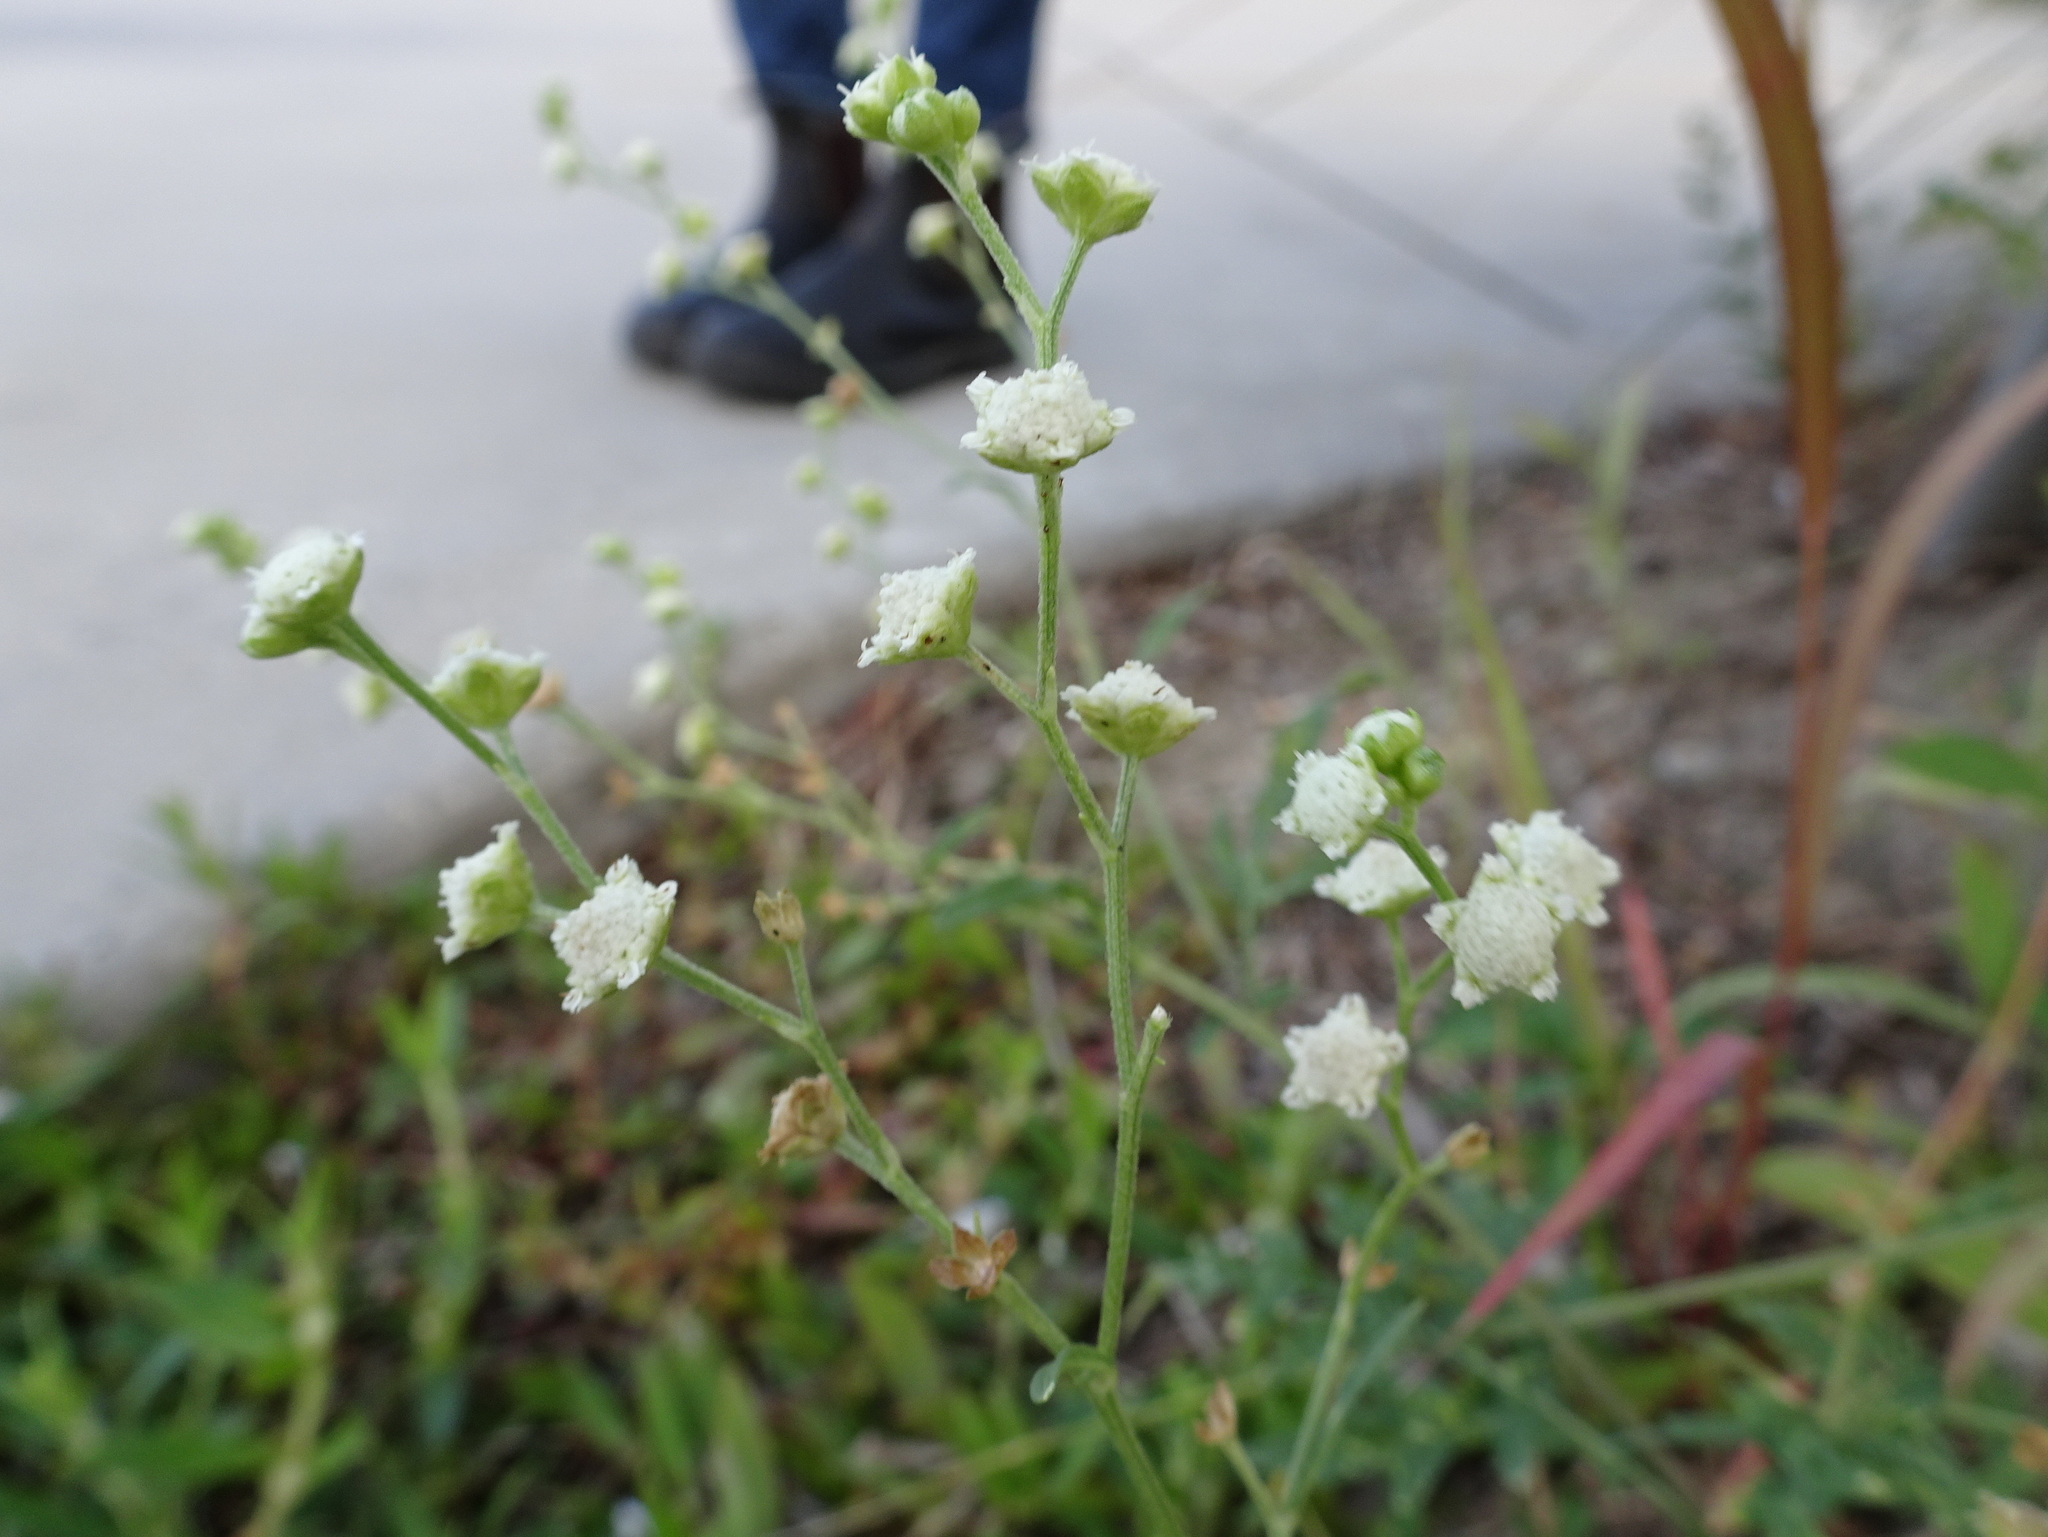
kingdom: Plantae
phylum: Tracheophyta
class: Magnoliopsida
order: Asterales
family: Asteraceae
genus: Parthenium
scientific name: Parthenium hysterophorus
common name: Santa maria feverfew
